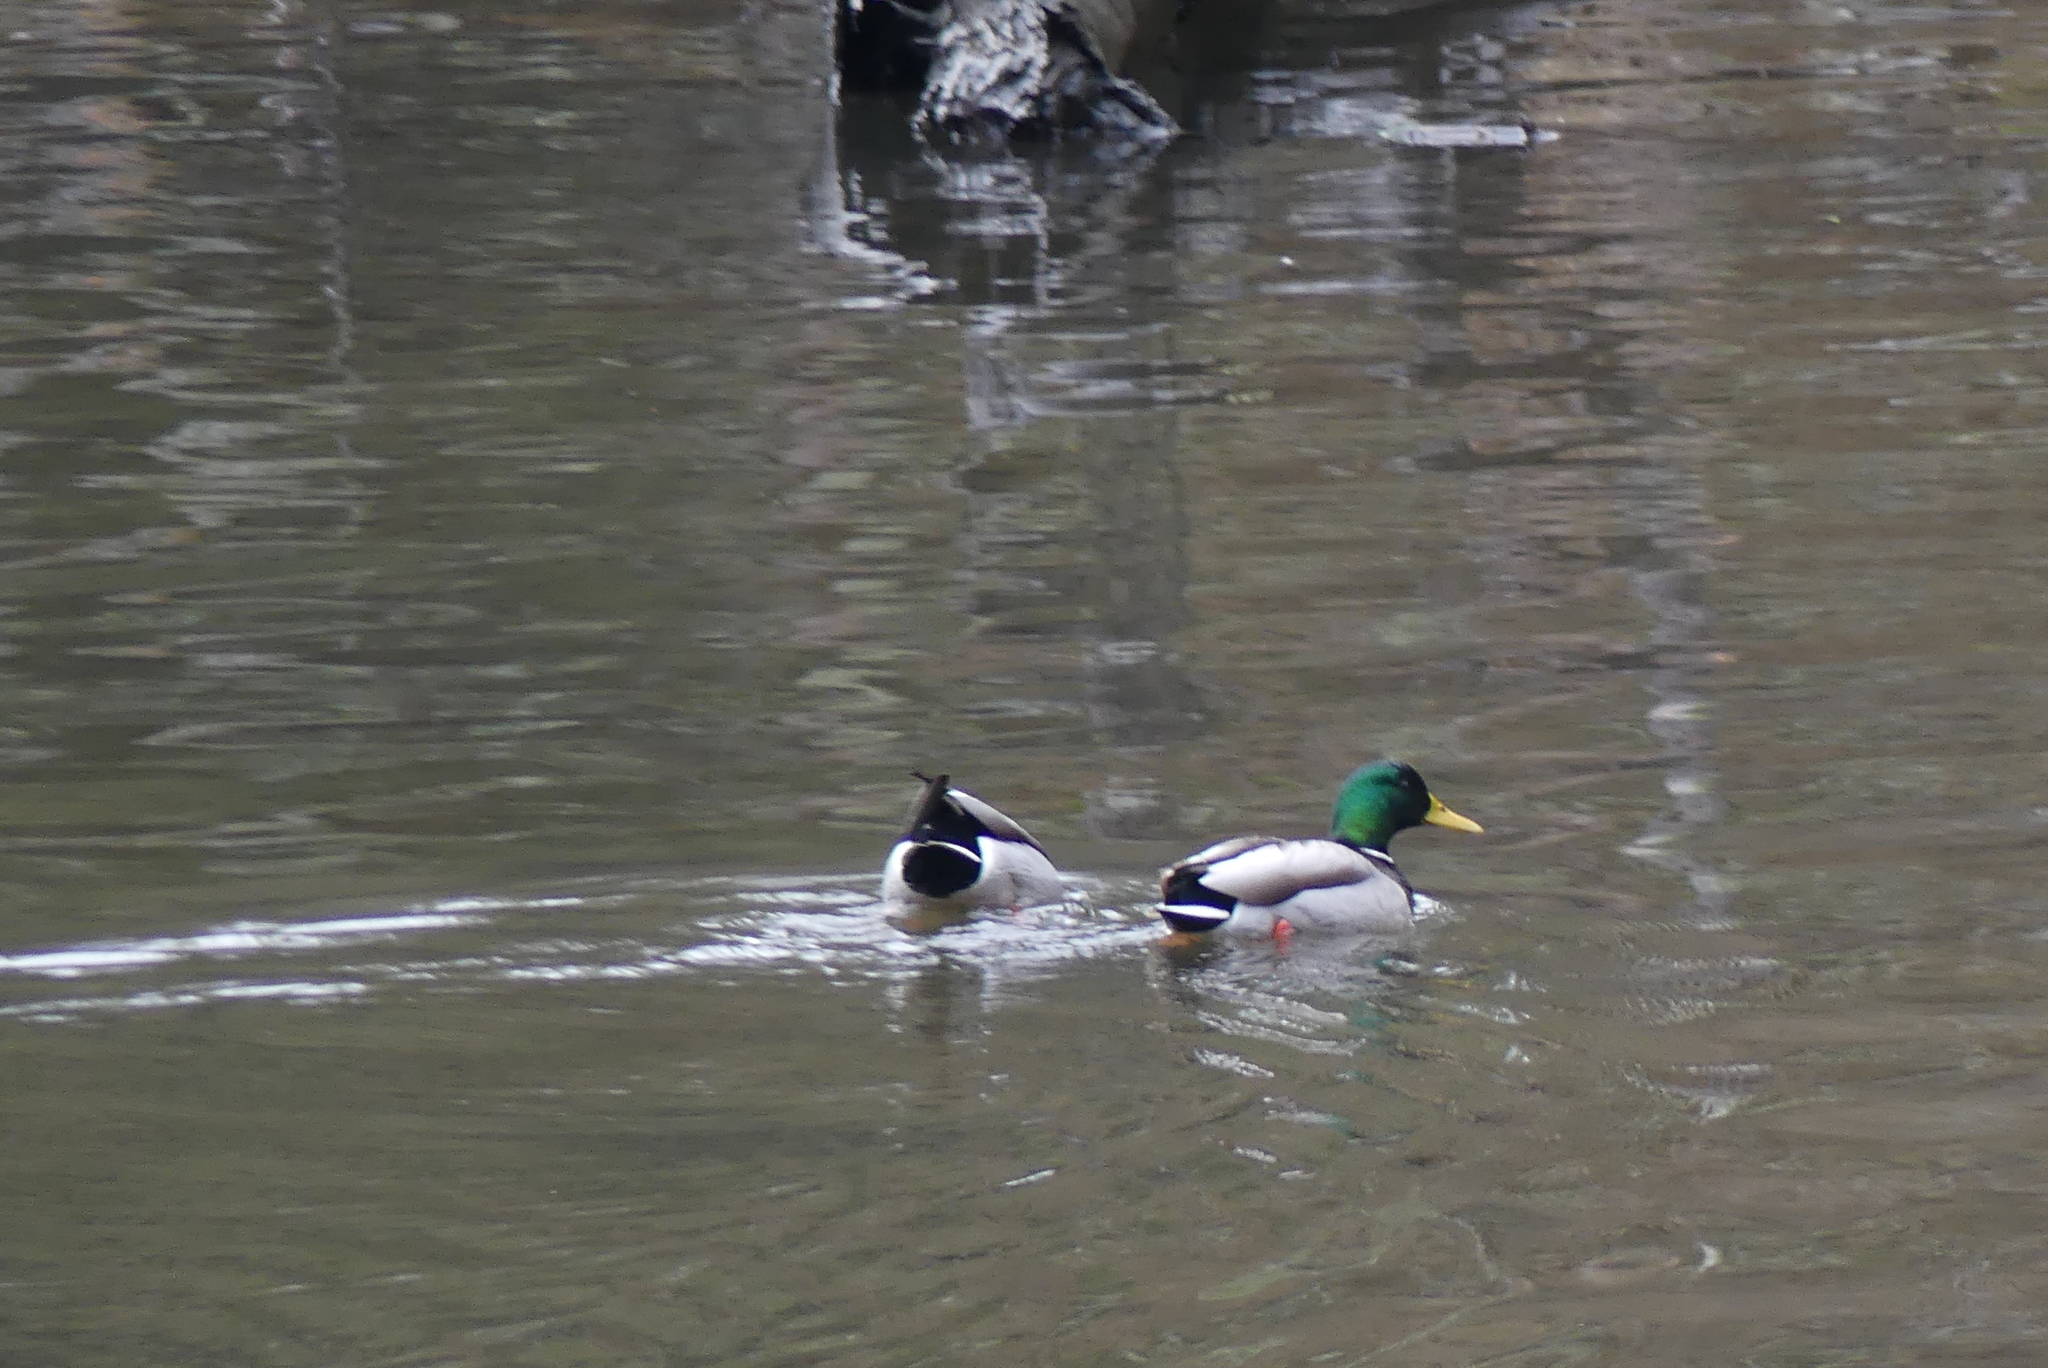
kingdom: Animalia
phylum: Chordata
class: Aves
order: Anseriformes
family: Anatidae
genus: Anas
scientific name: Anas platyrhynchos
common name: Mallard
